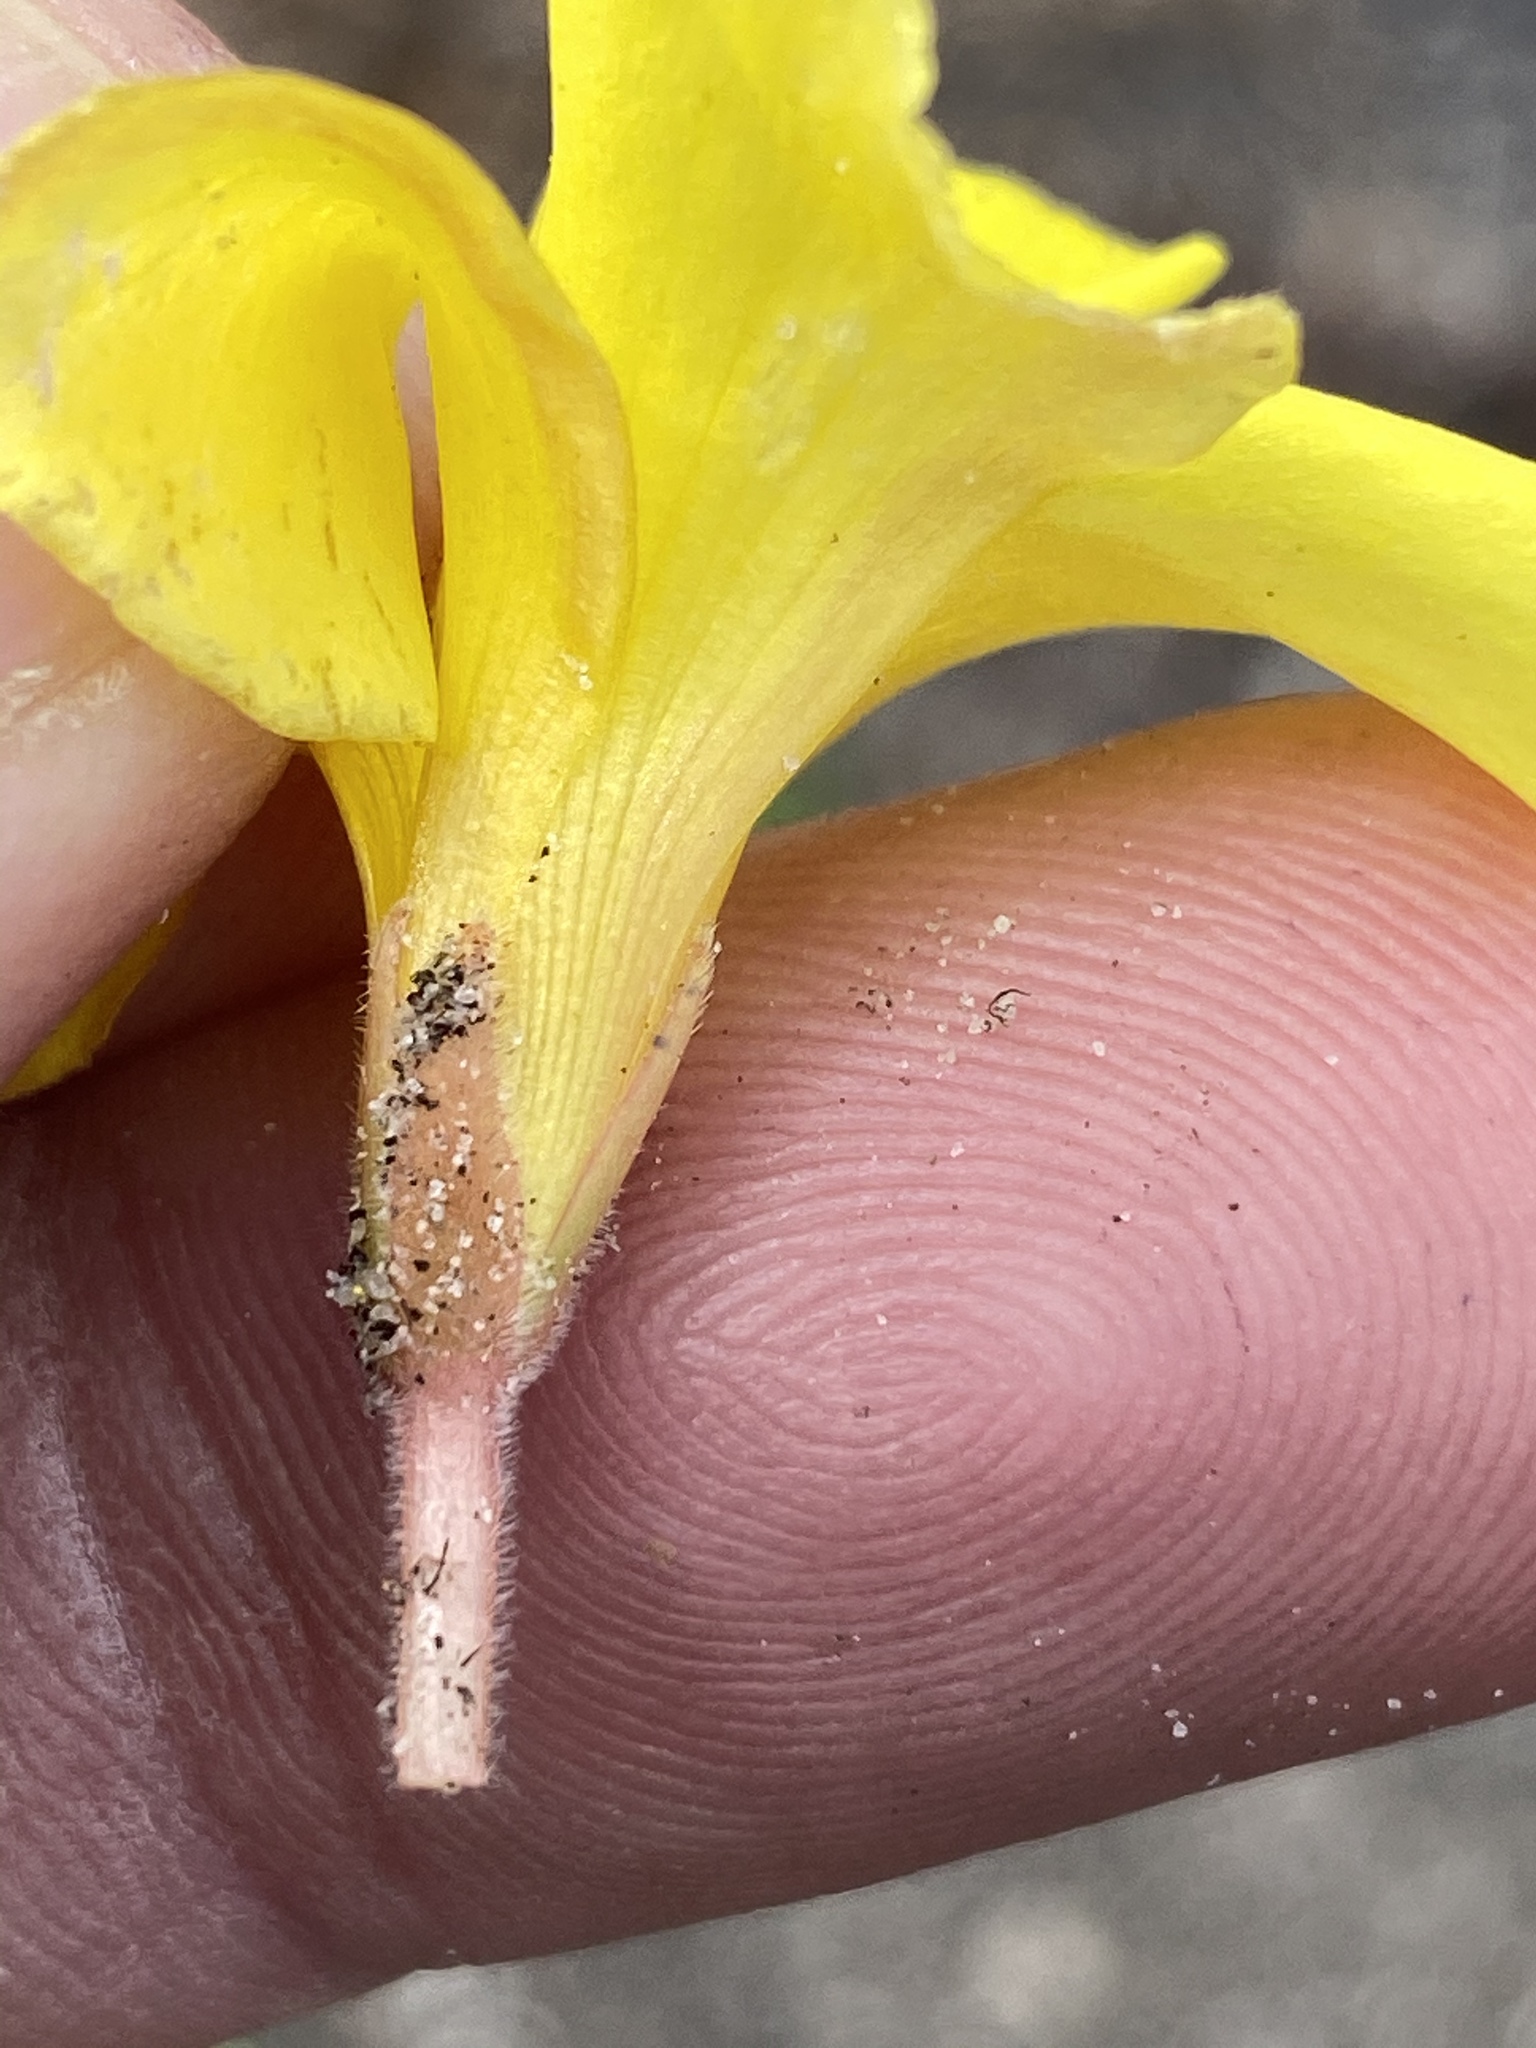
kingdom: Plantae
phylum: Tracheophyta
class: Magnoliopsida
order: Oxalidales
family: Oxalidaceae
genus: Oxalis
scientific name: Oxalis luteola
